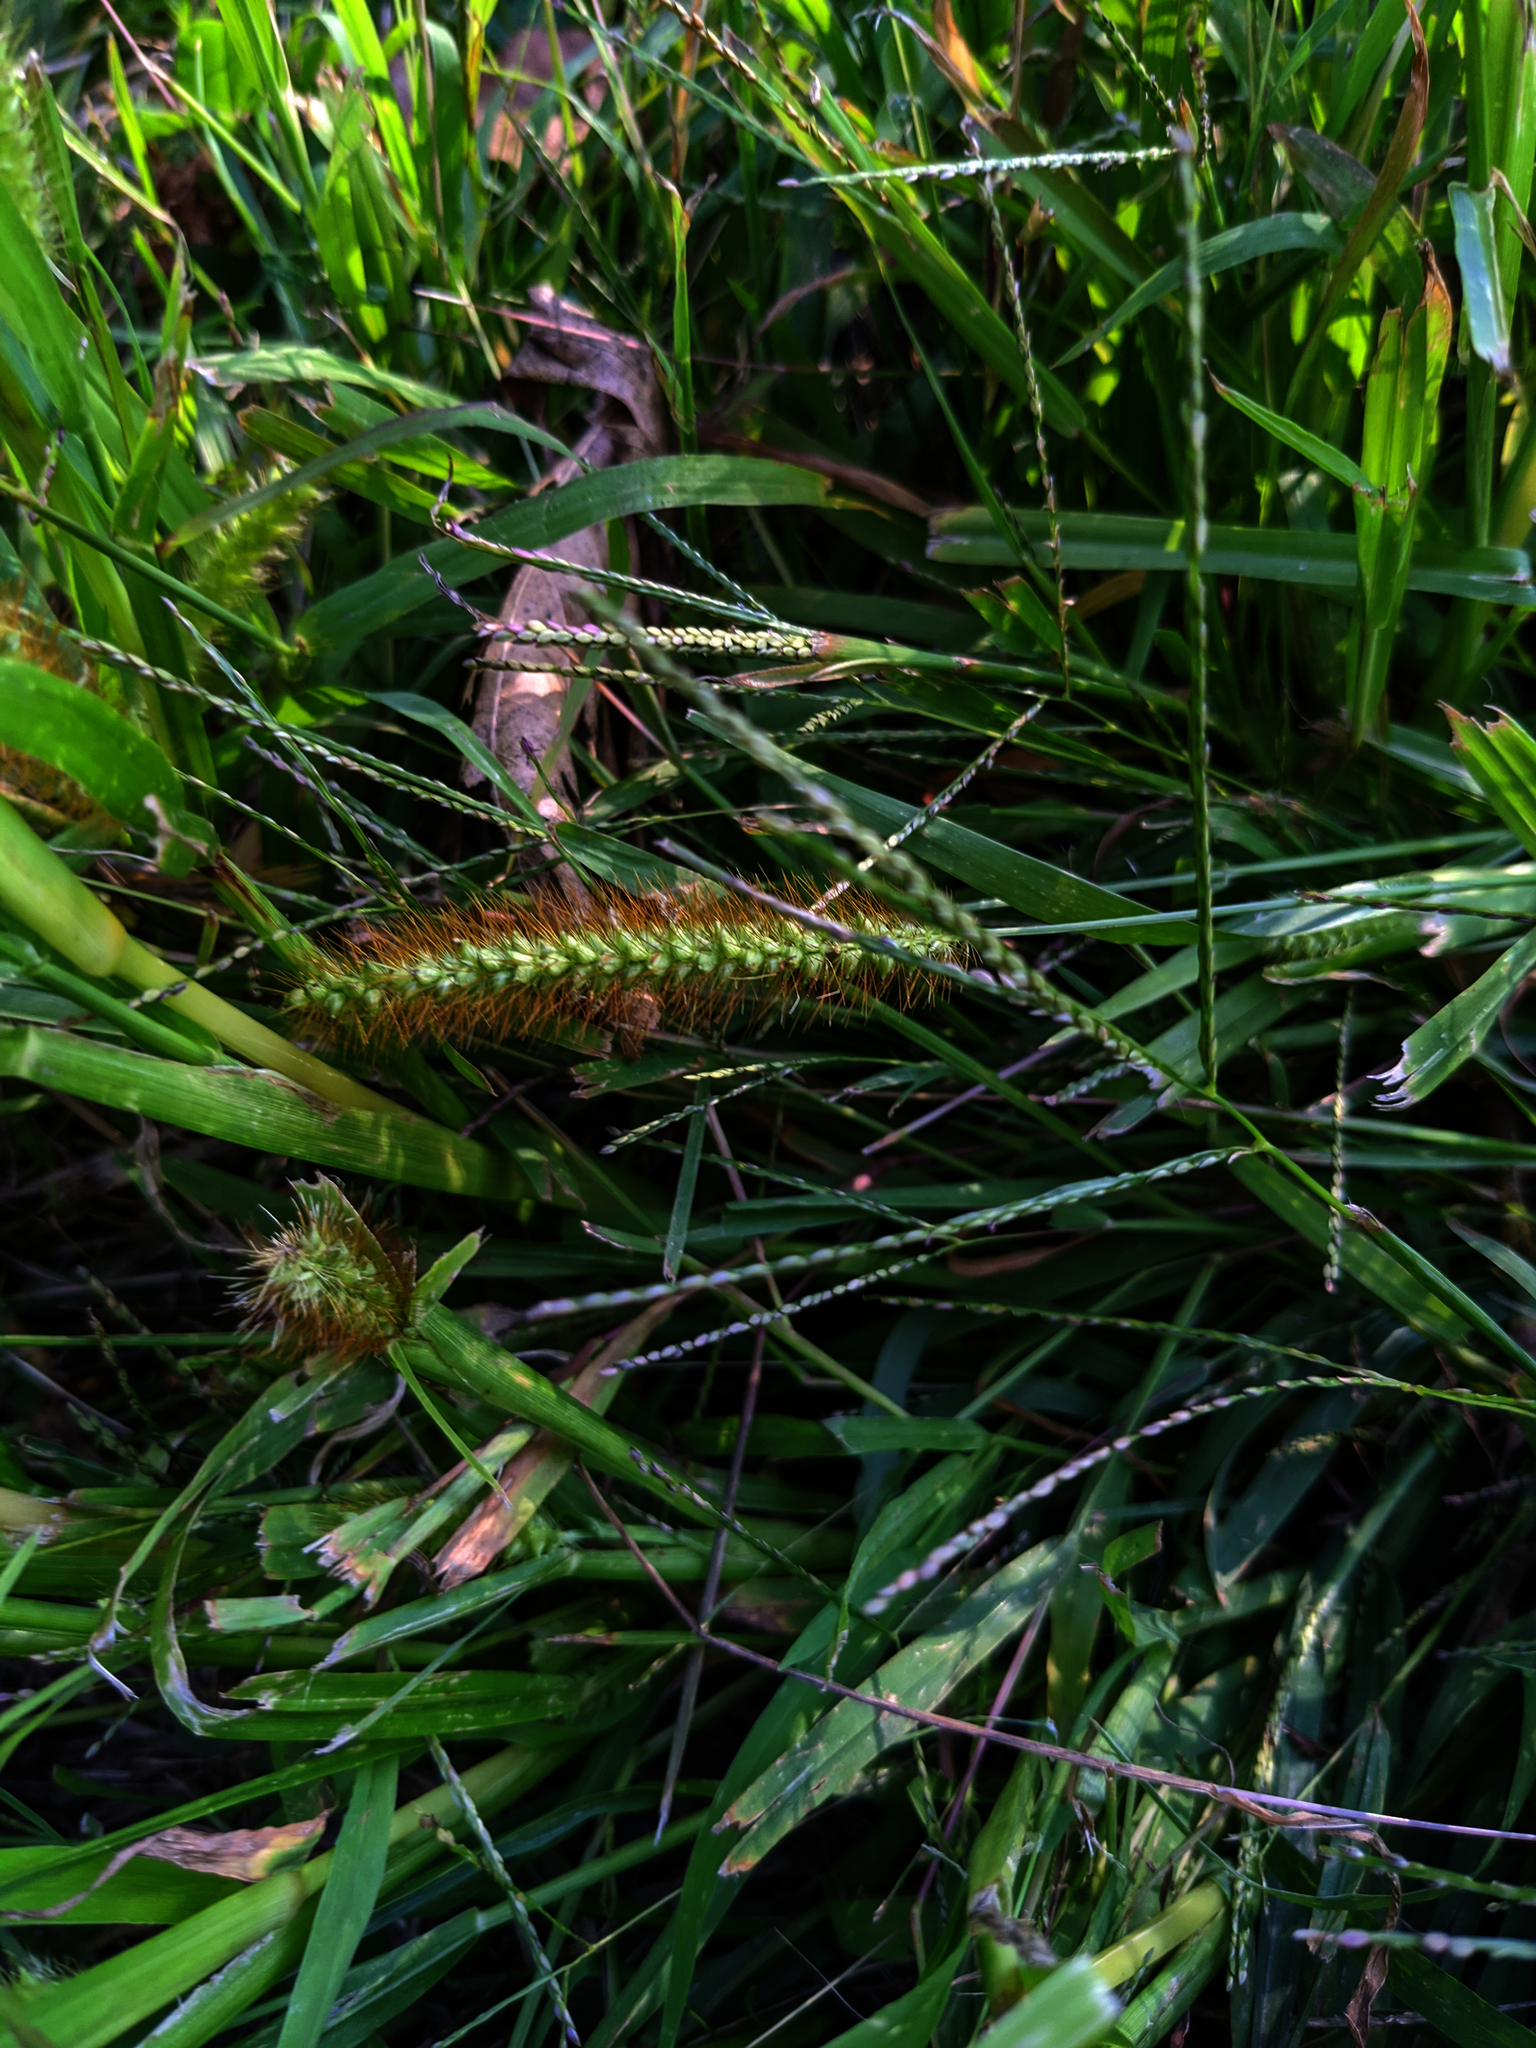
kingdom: Plantae
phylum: Tracheophyta
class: Liliopsida
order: Poales
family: Poaceae
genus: Setaria
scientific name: Setaria pumila
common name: Yellow bristle-grass
